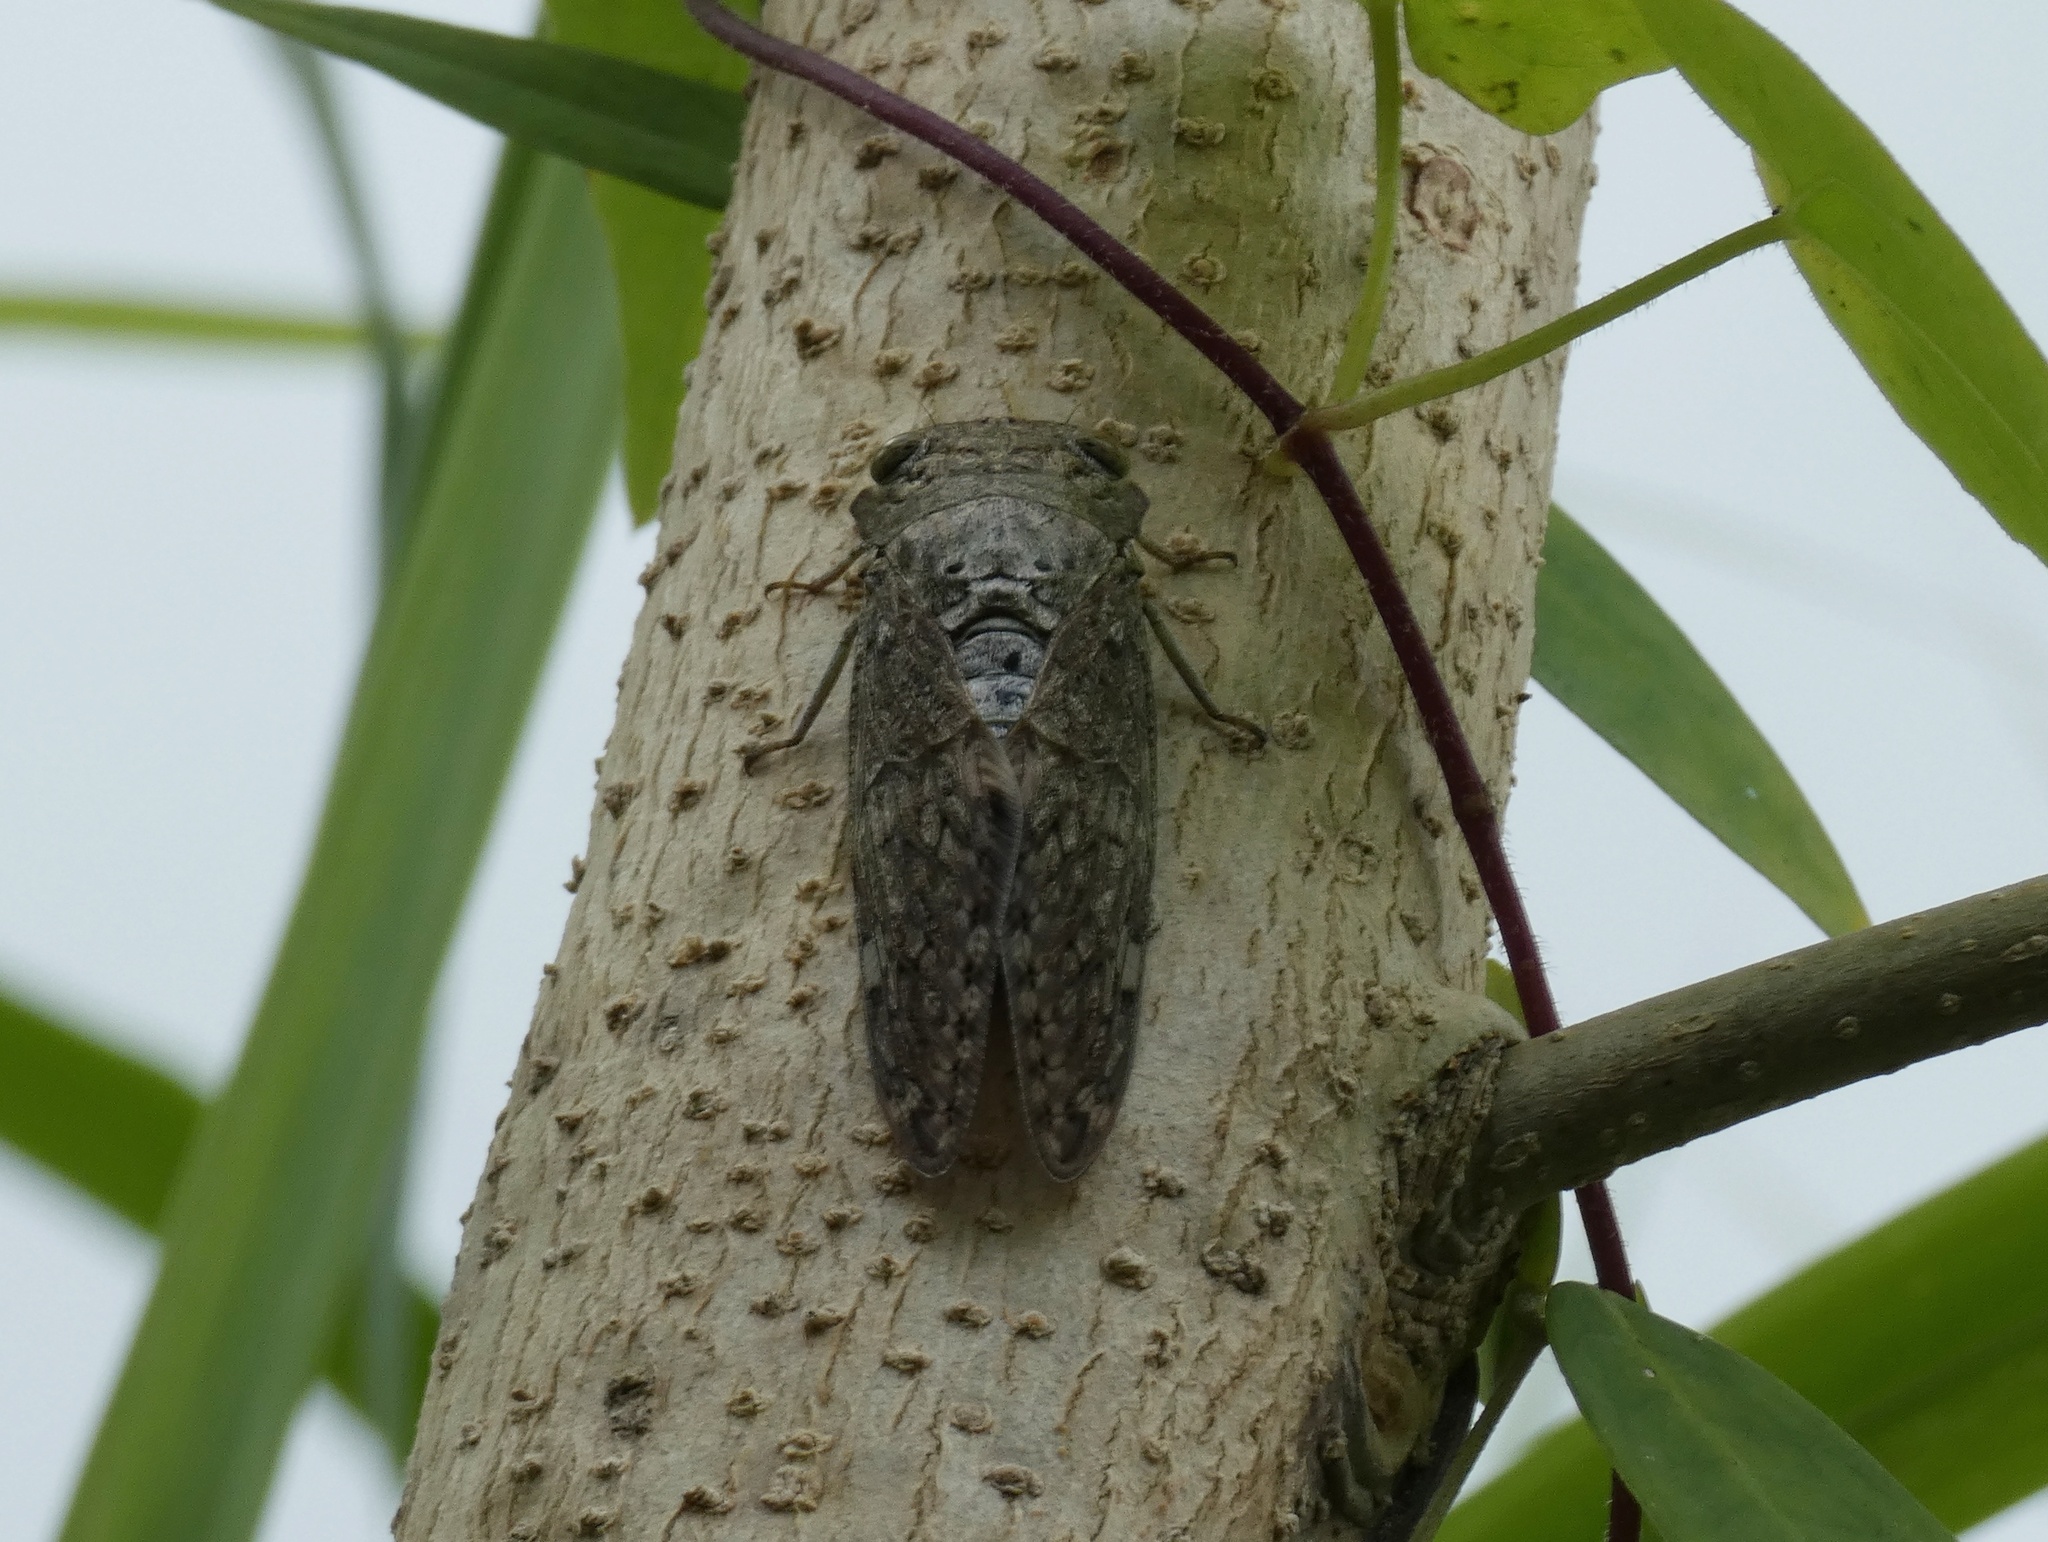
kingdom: Animalia
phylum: Arthropoda
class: Insecta
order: Hemiptera
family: Cicadidae
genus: Platypleura
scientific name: Platypleura lourensi
